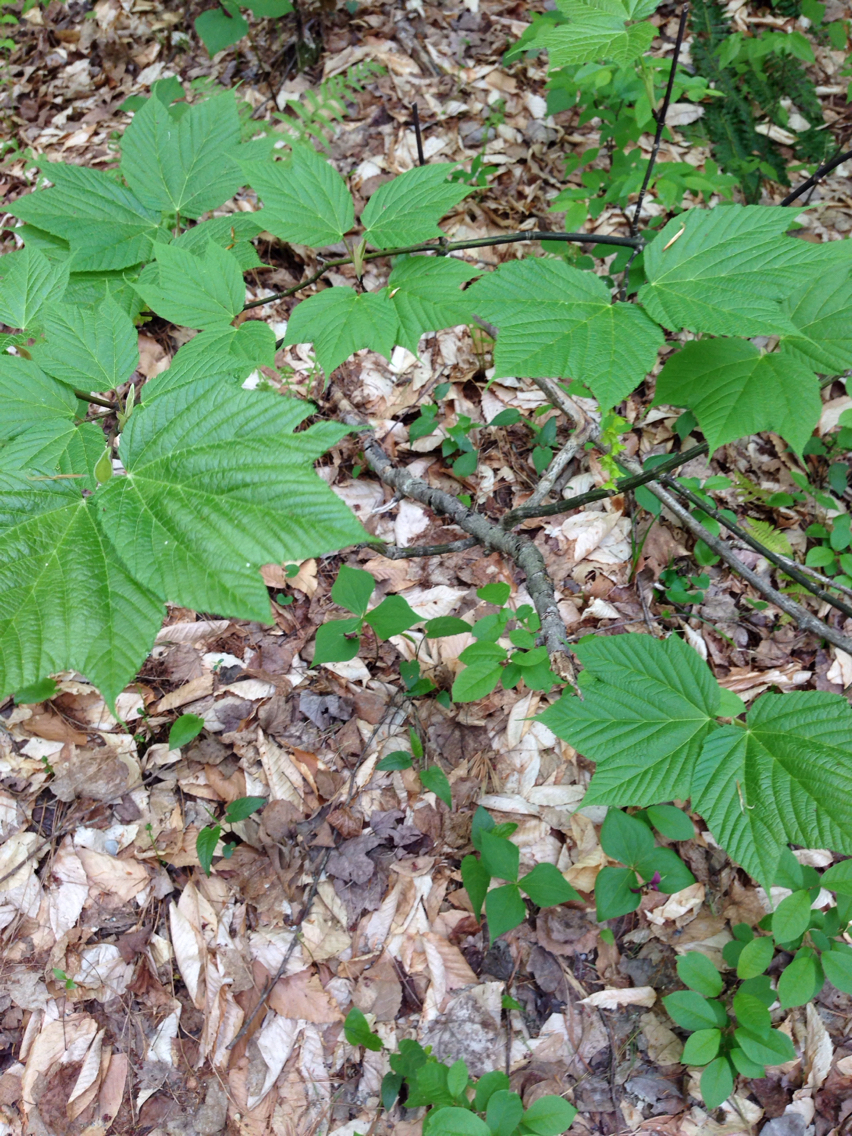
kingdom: Plantae
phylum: Tracheophyta
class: Magnoliopsida
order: Sapindales
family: Sapindaceae
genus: Acer
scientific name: Acer pensylvanicum
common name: Moosewood
